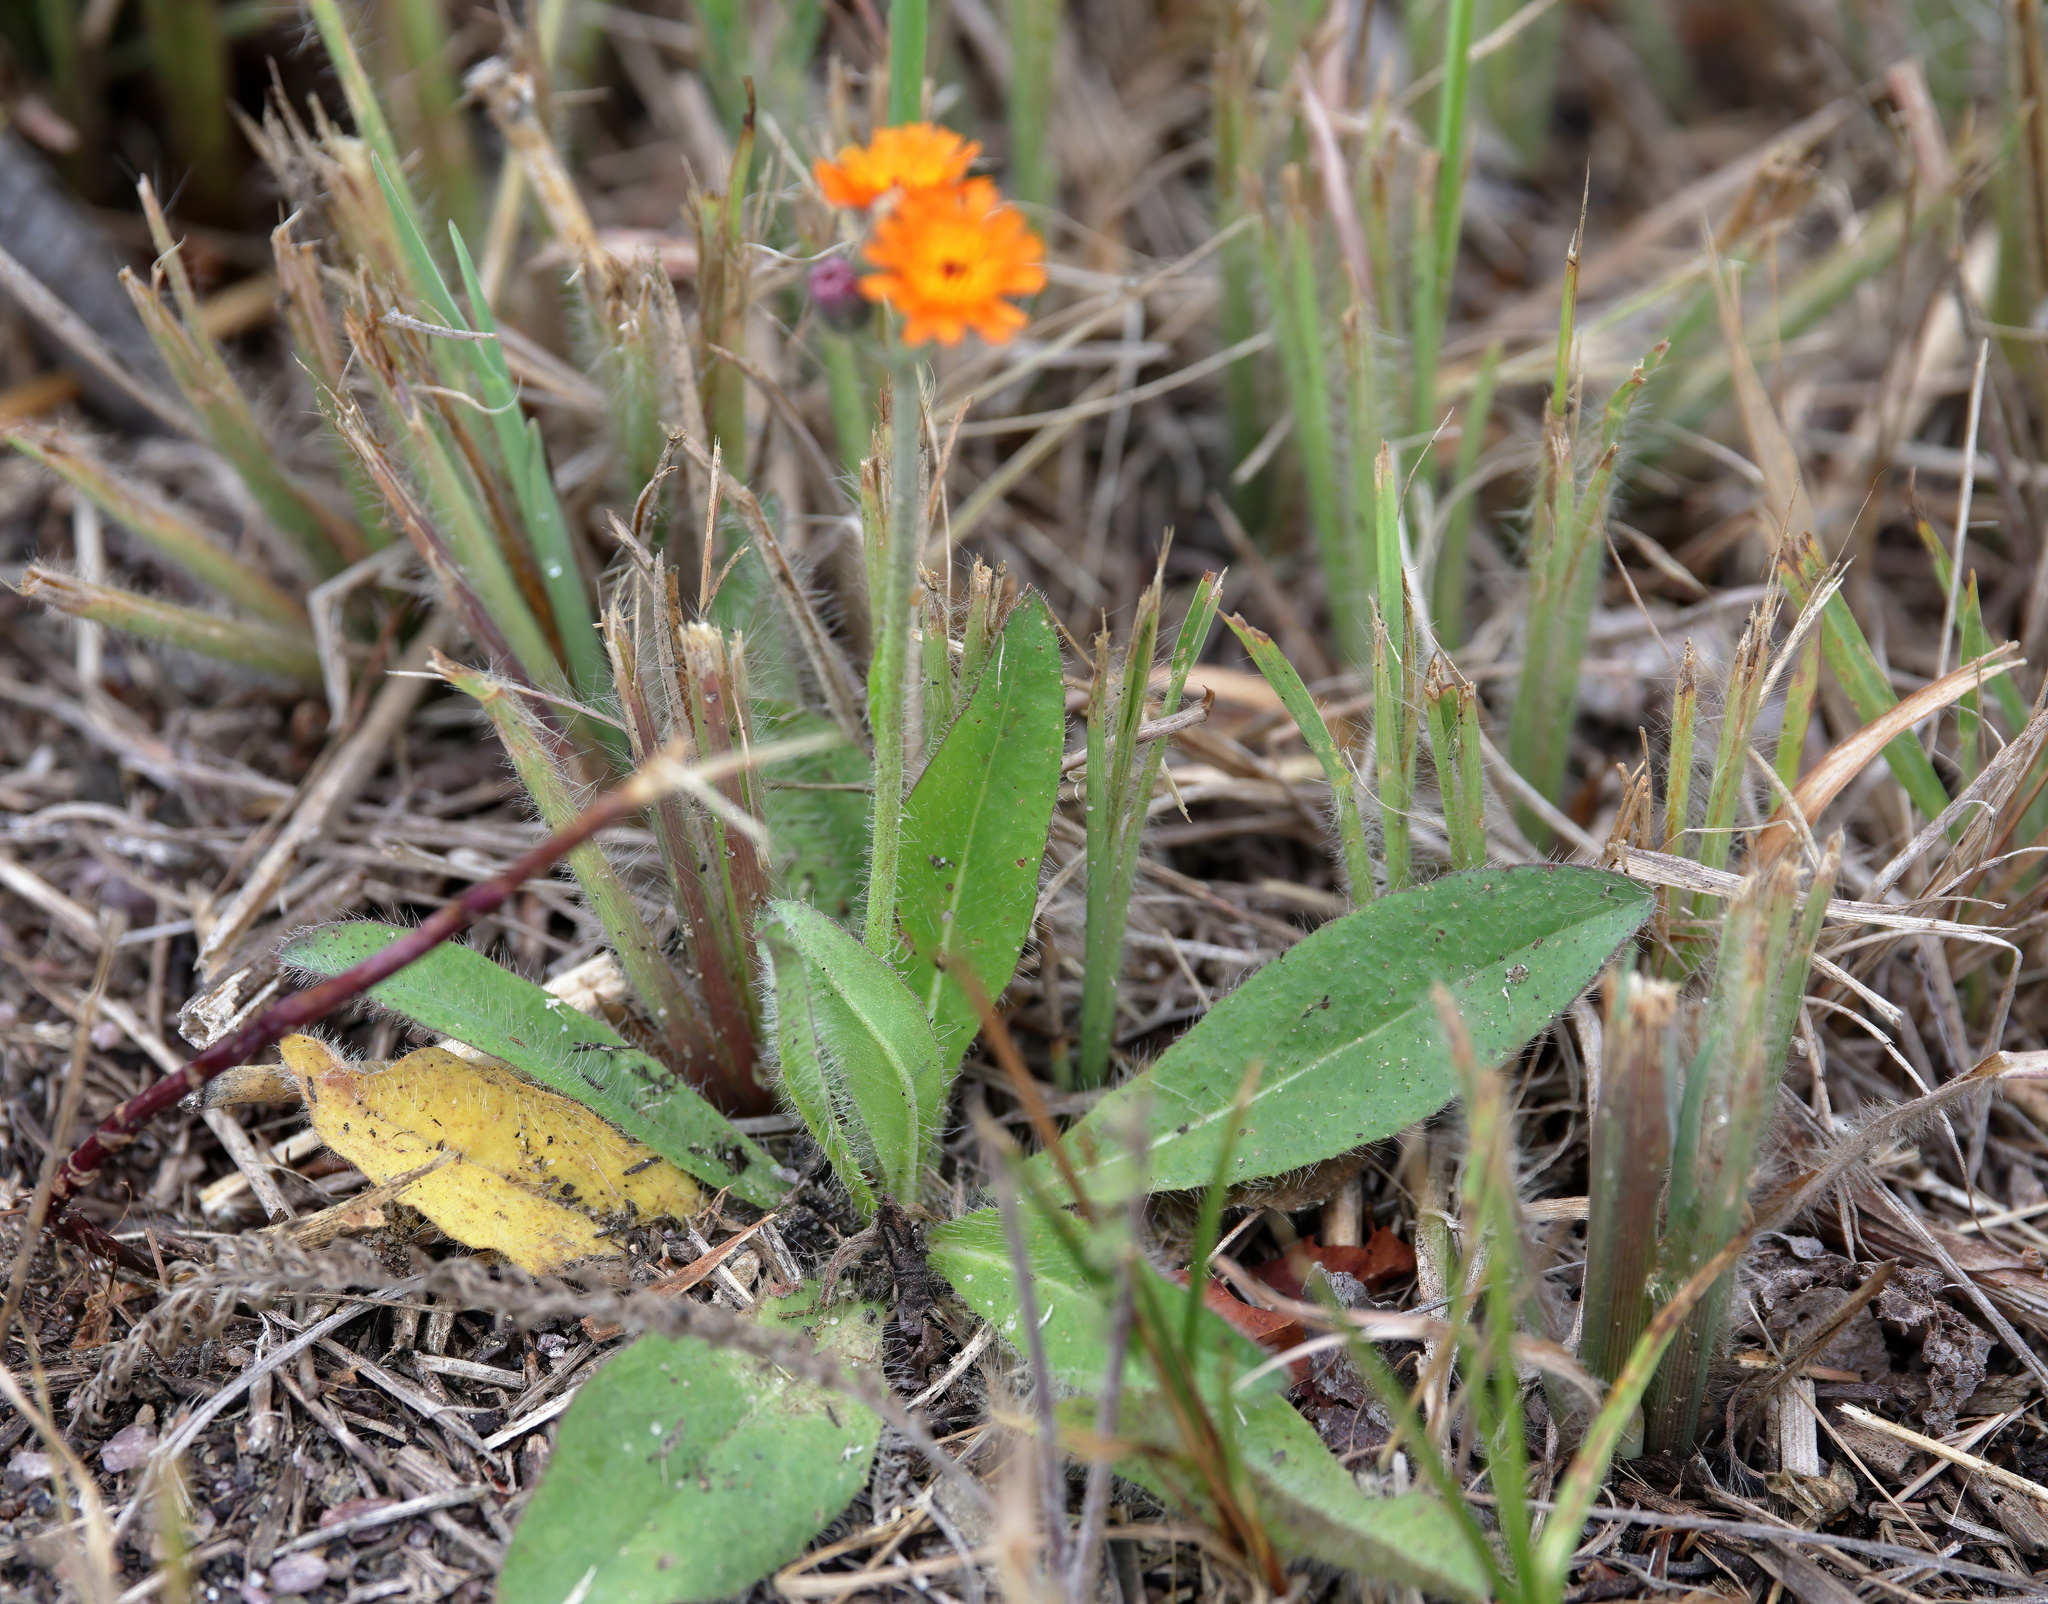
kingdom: Plantae
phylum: Tracheophyta
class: Magnoliopsida
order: Asterales
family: Asteraceae
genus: Pilosella
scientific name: Pilosella aurantiaca
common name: Fox-and-cubs
